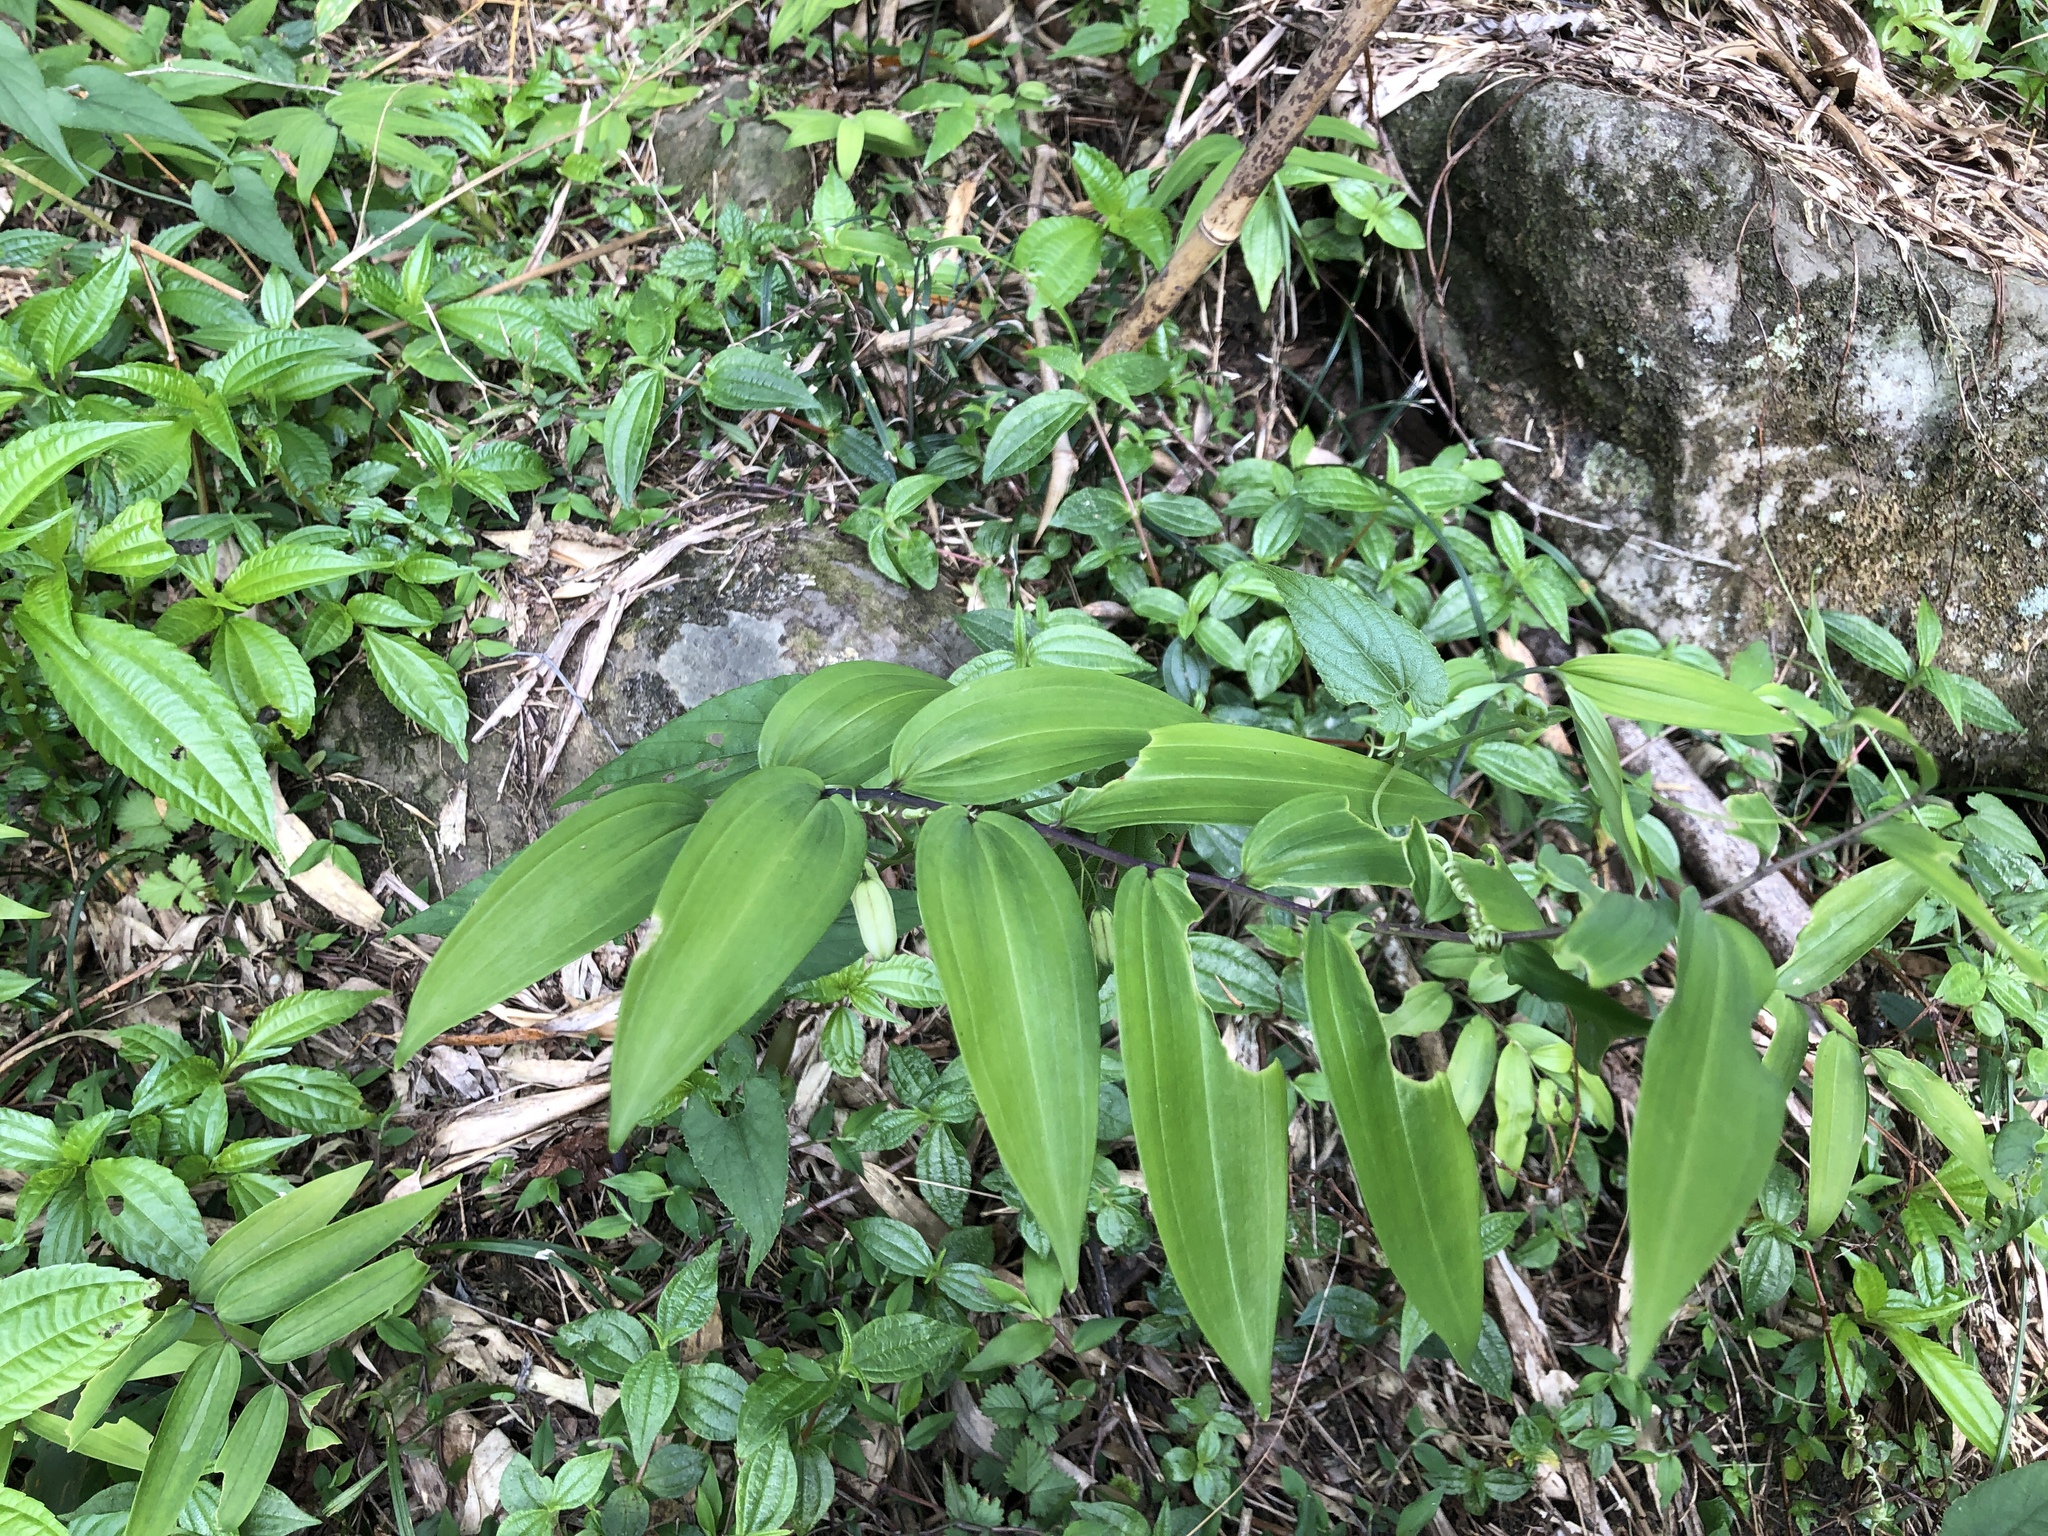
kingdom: Plantae
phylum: Tracheophyta
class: Liliopsida
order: Asparagales
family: Asparagaceae
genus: Polygonatum
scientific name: Polygonatum arisanense
